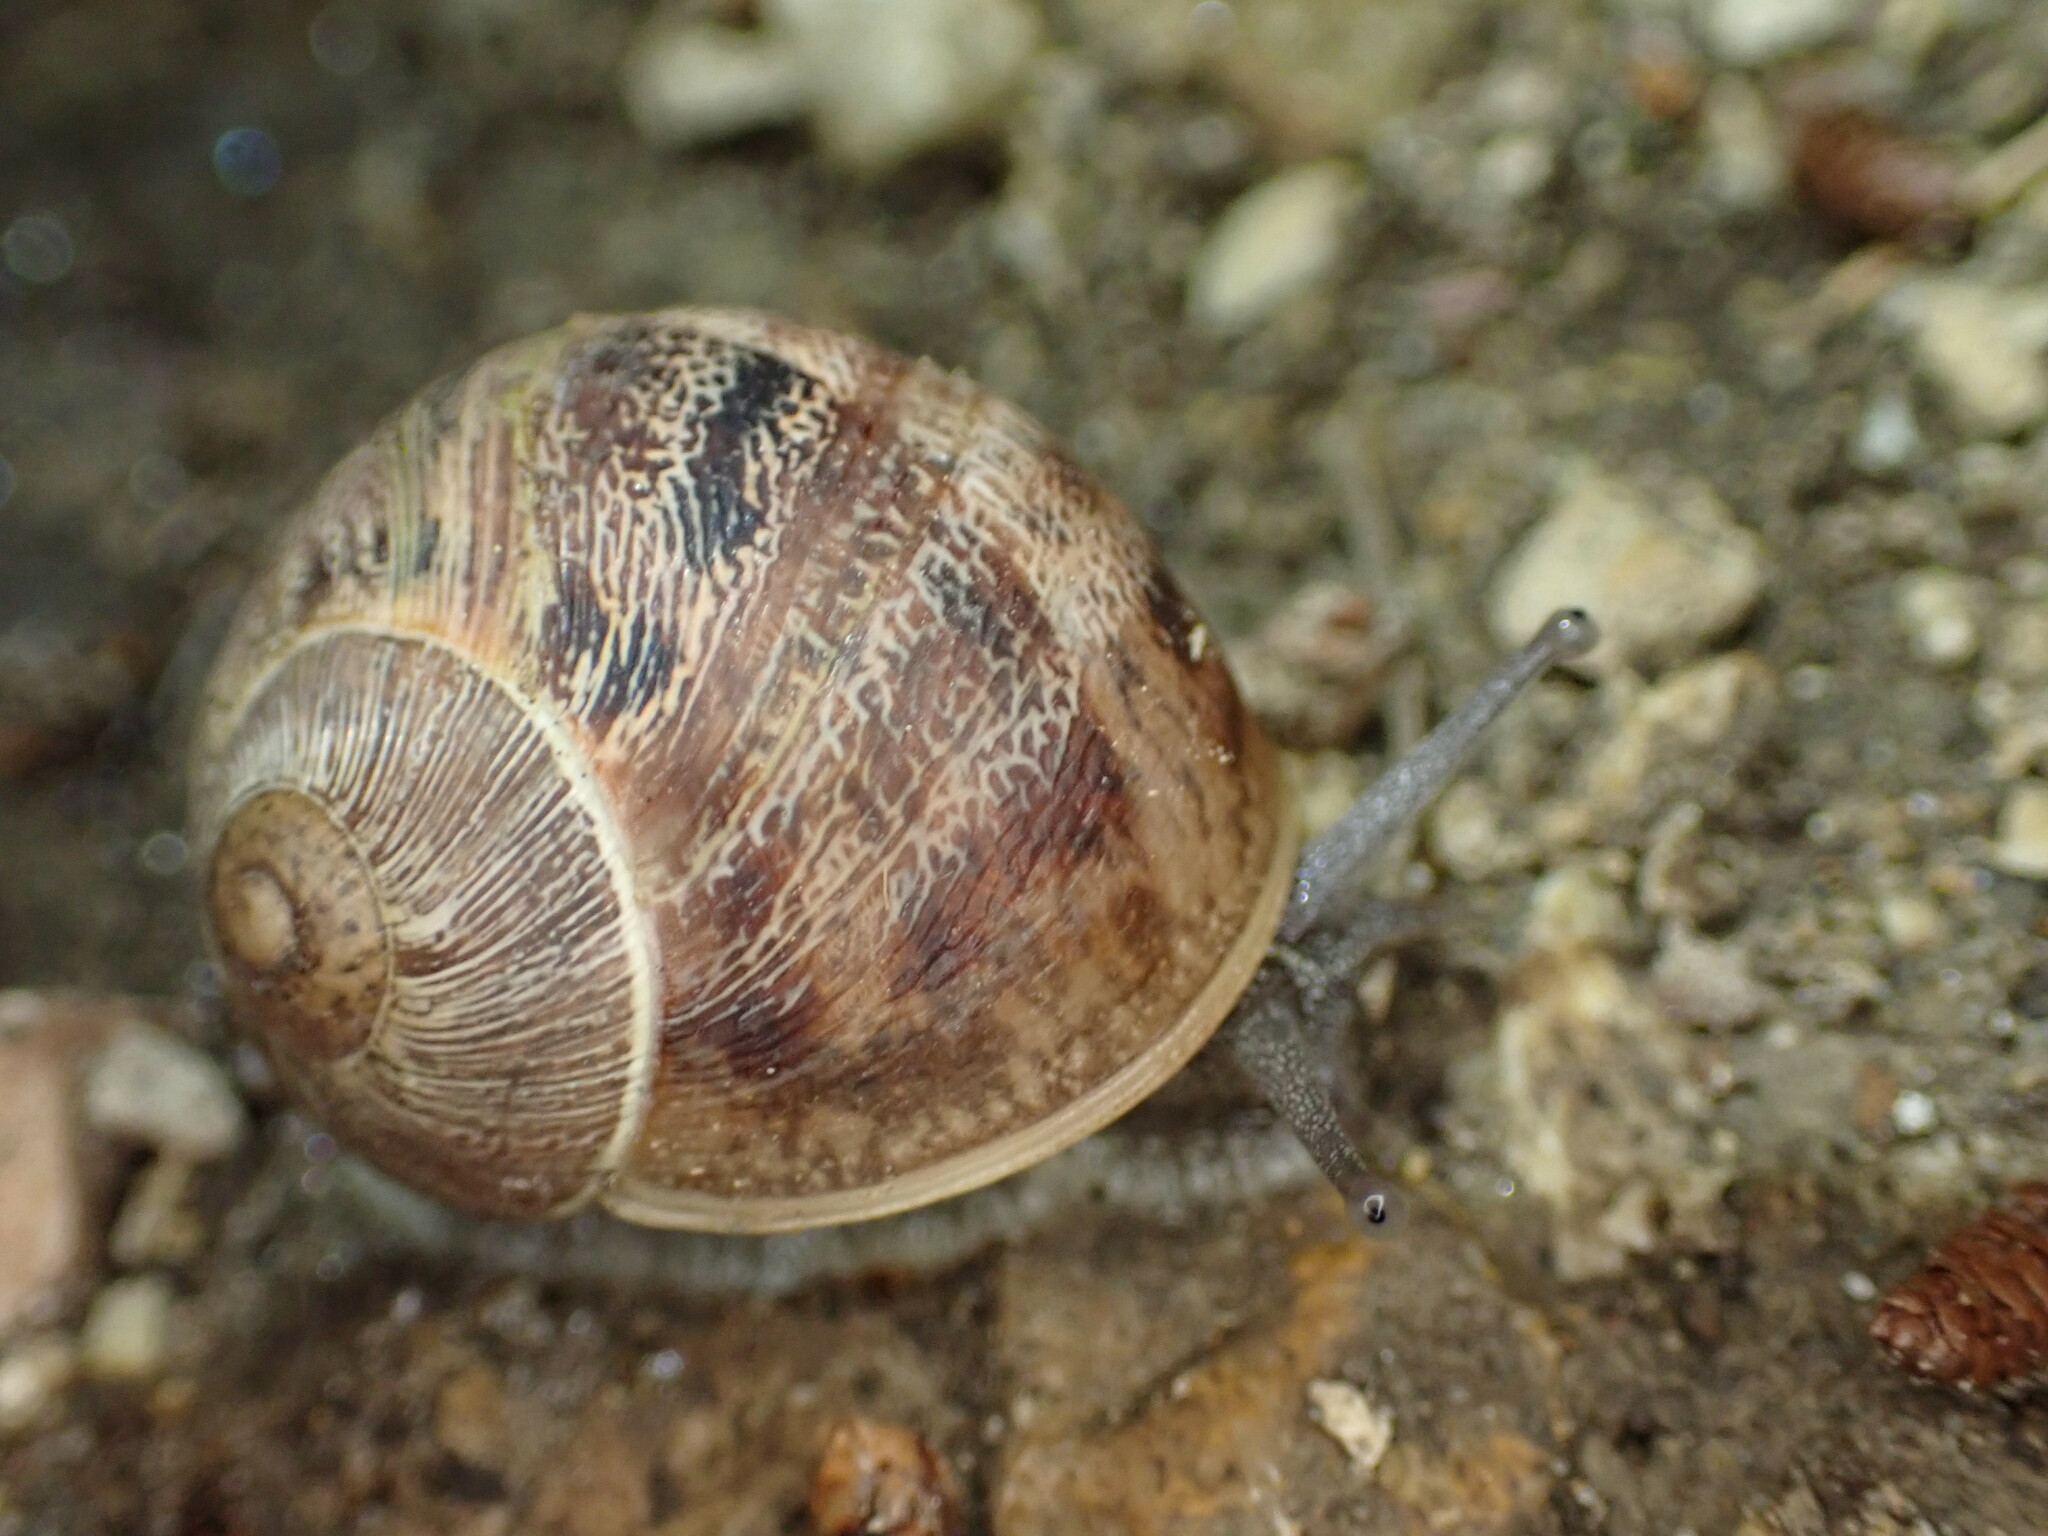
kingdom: Animalia
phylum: Mollusca
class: Gastropoda
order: Stylommatophora
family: Helicidae
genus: Cornu
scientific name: Cornu aspersum
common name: Brown garden snail
